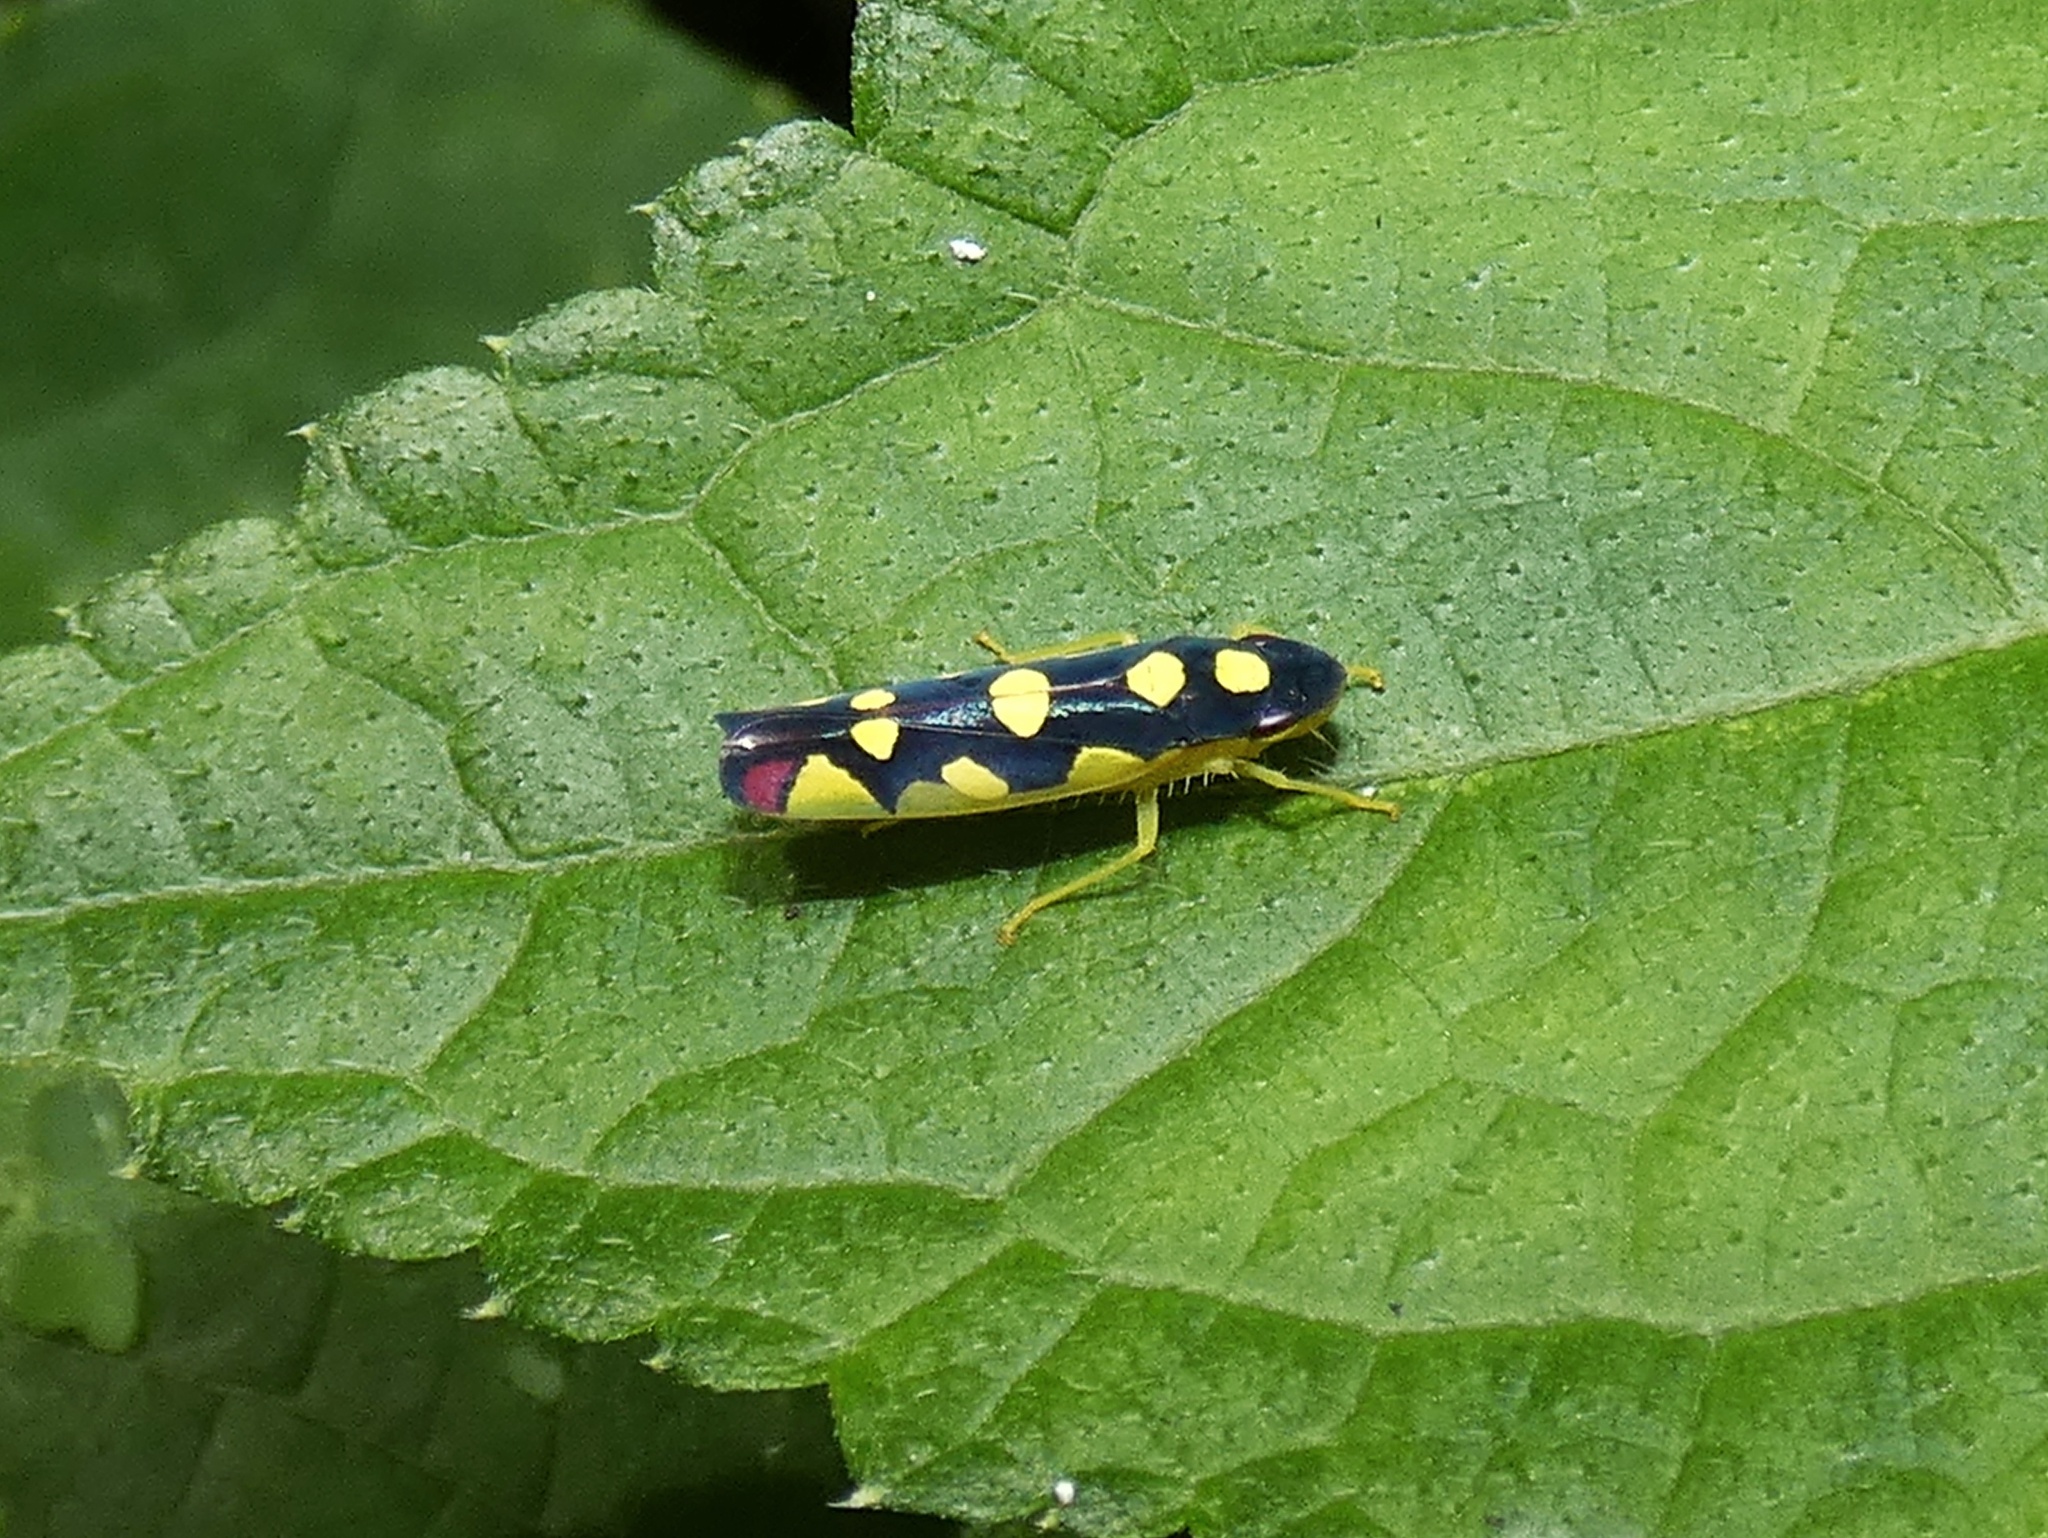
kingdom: Animalia
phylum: Arthropoda
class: Insecta
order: Hemiptera
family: Cicadellidae
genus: Baleja
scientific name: Baleja flavoguttata
